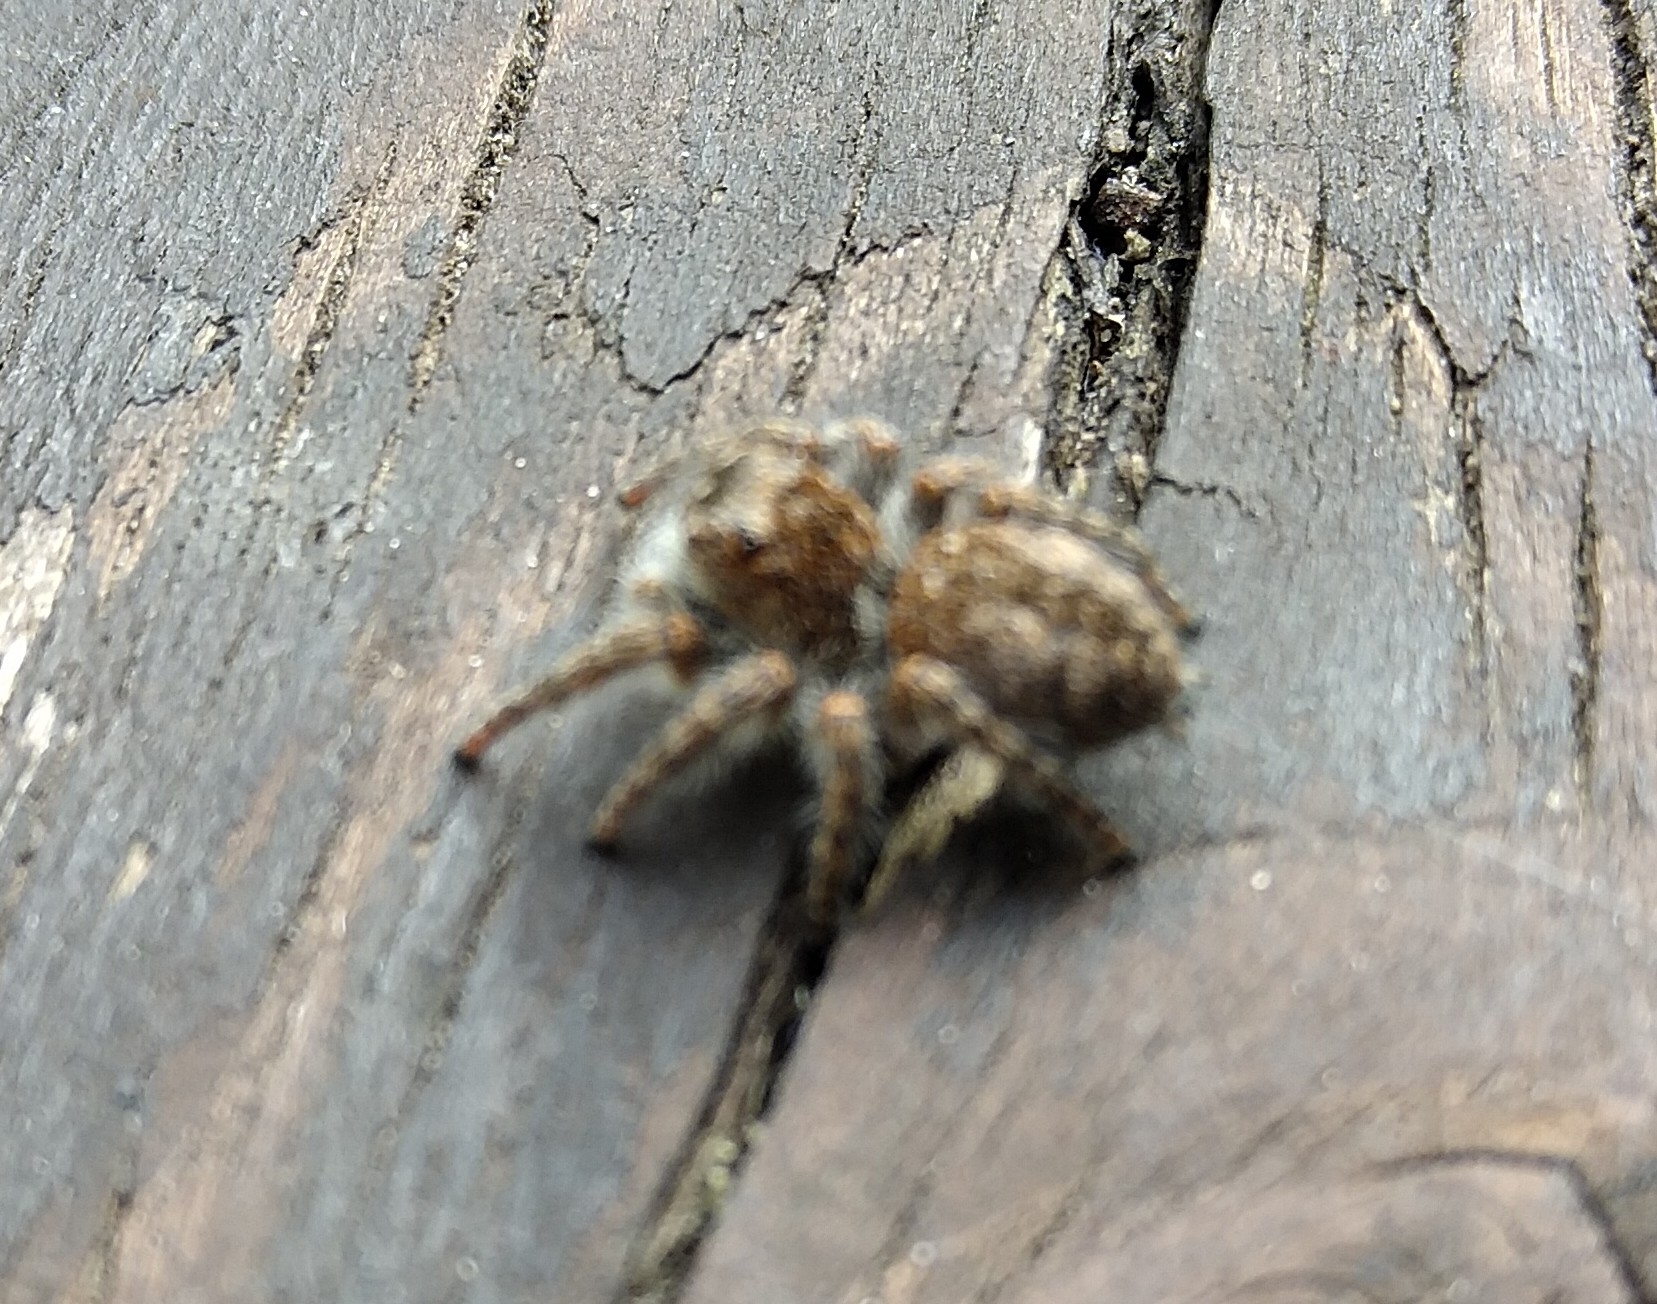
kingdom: Animalia
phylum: Arthropoda
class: Arachnida
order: Araneae
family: Salticidae
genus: Philaeus
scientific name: Philaeus chrysops
